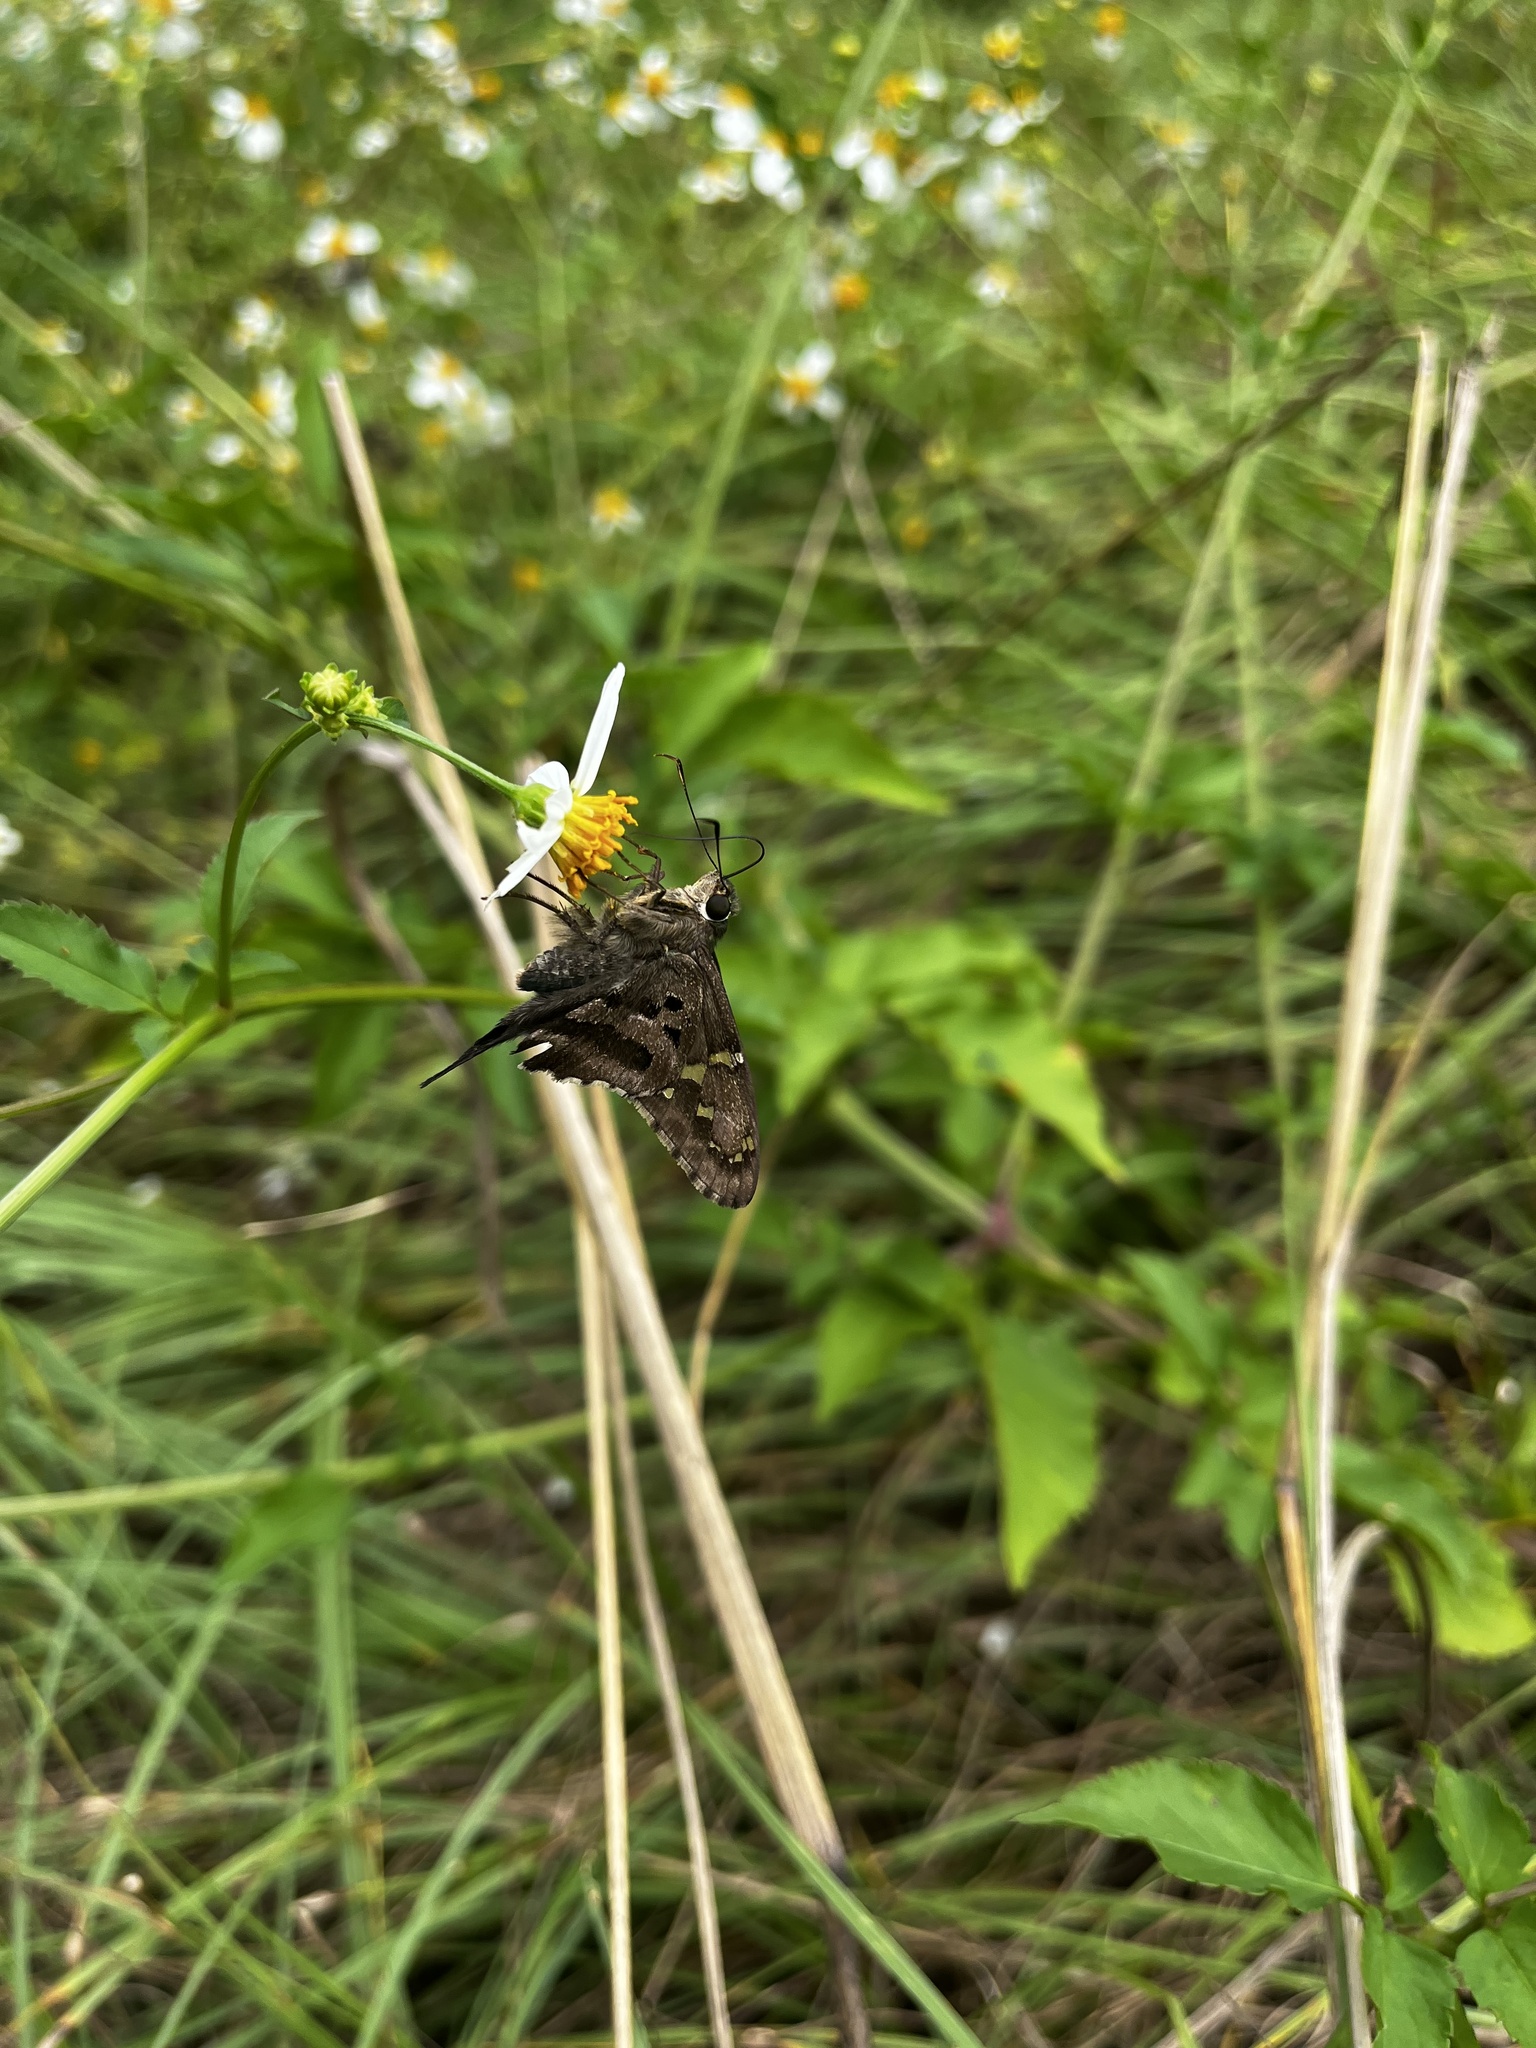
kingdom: Animalia
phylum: Arthropoda
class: Insecta
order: Lepidoptera
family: Hesperiidae
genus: Urbanus
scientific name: Urbanus proteus
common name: Long-tailed skipper
